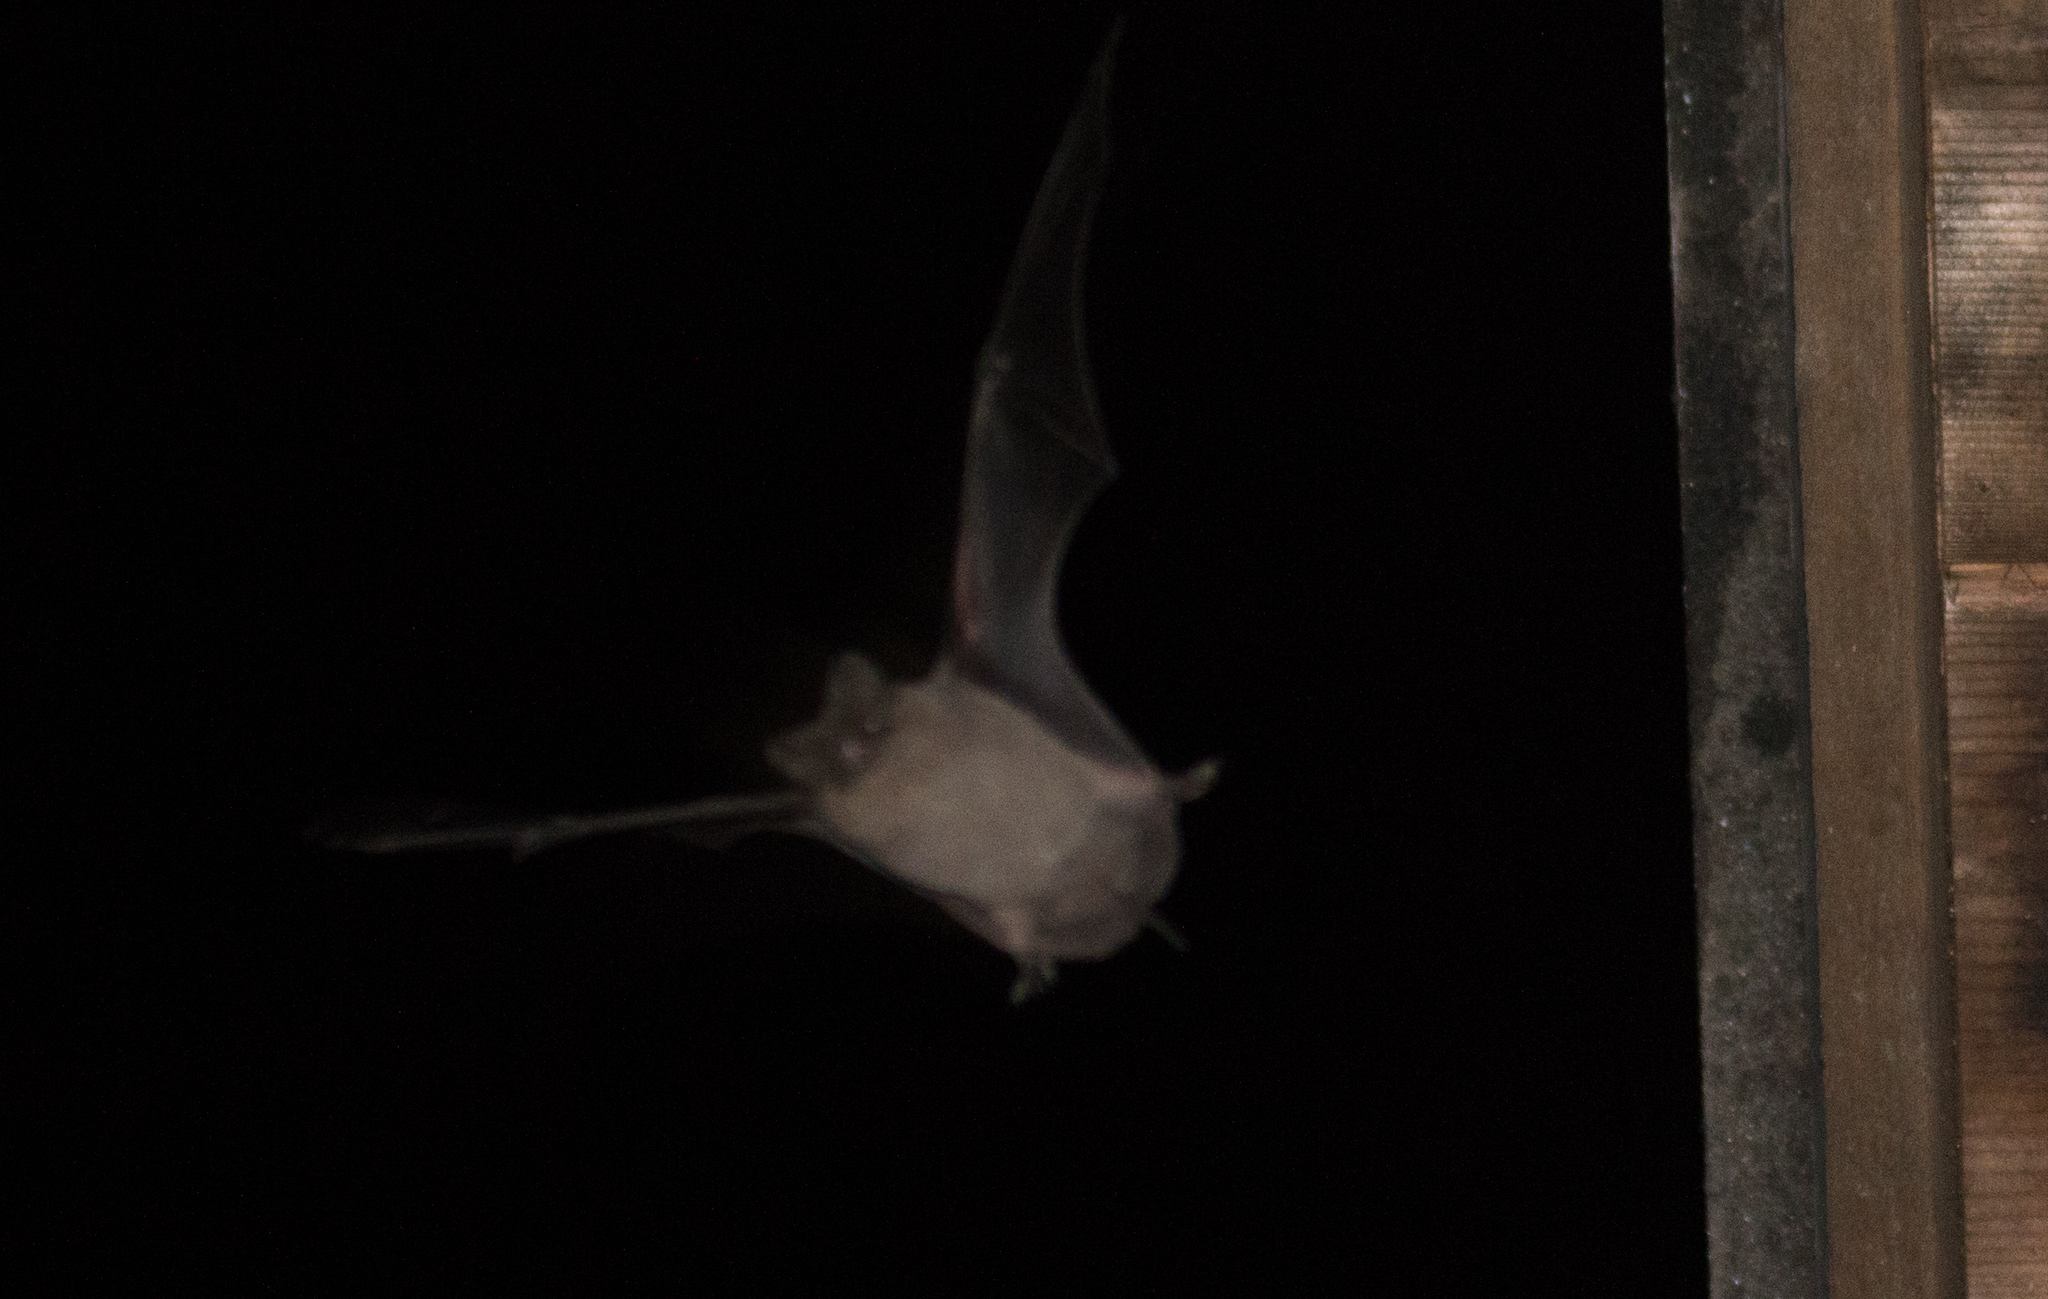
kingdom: Animalia
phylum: Chordata
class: Mammalia
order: Chiroptera
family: Molossidae
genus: Tadarida
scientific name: Tadarida brasiliensis
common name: Mexican free-tailed bat
